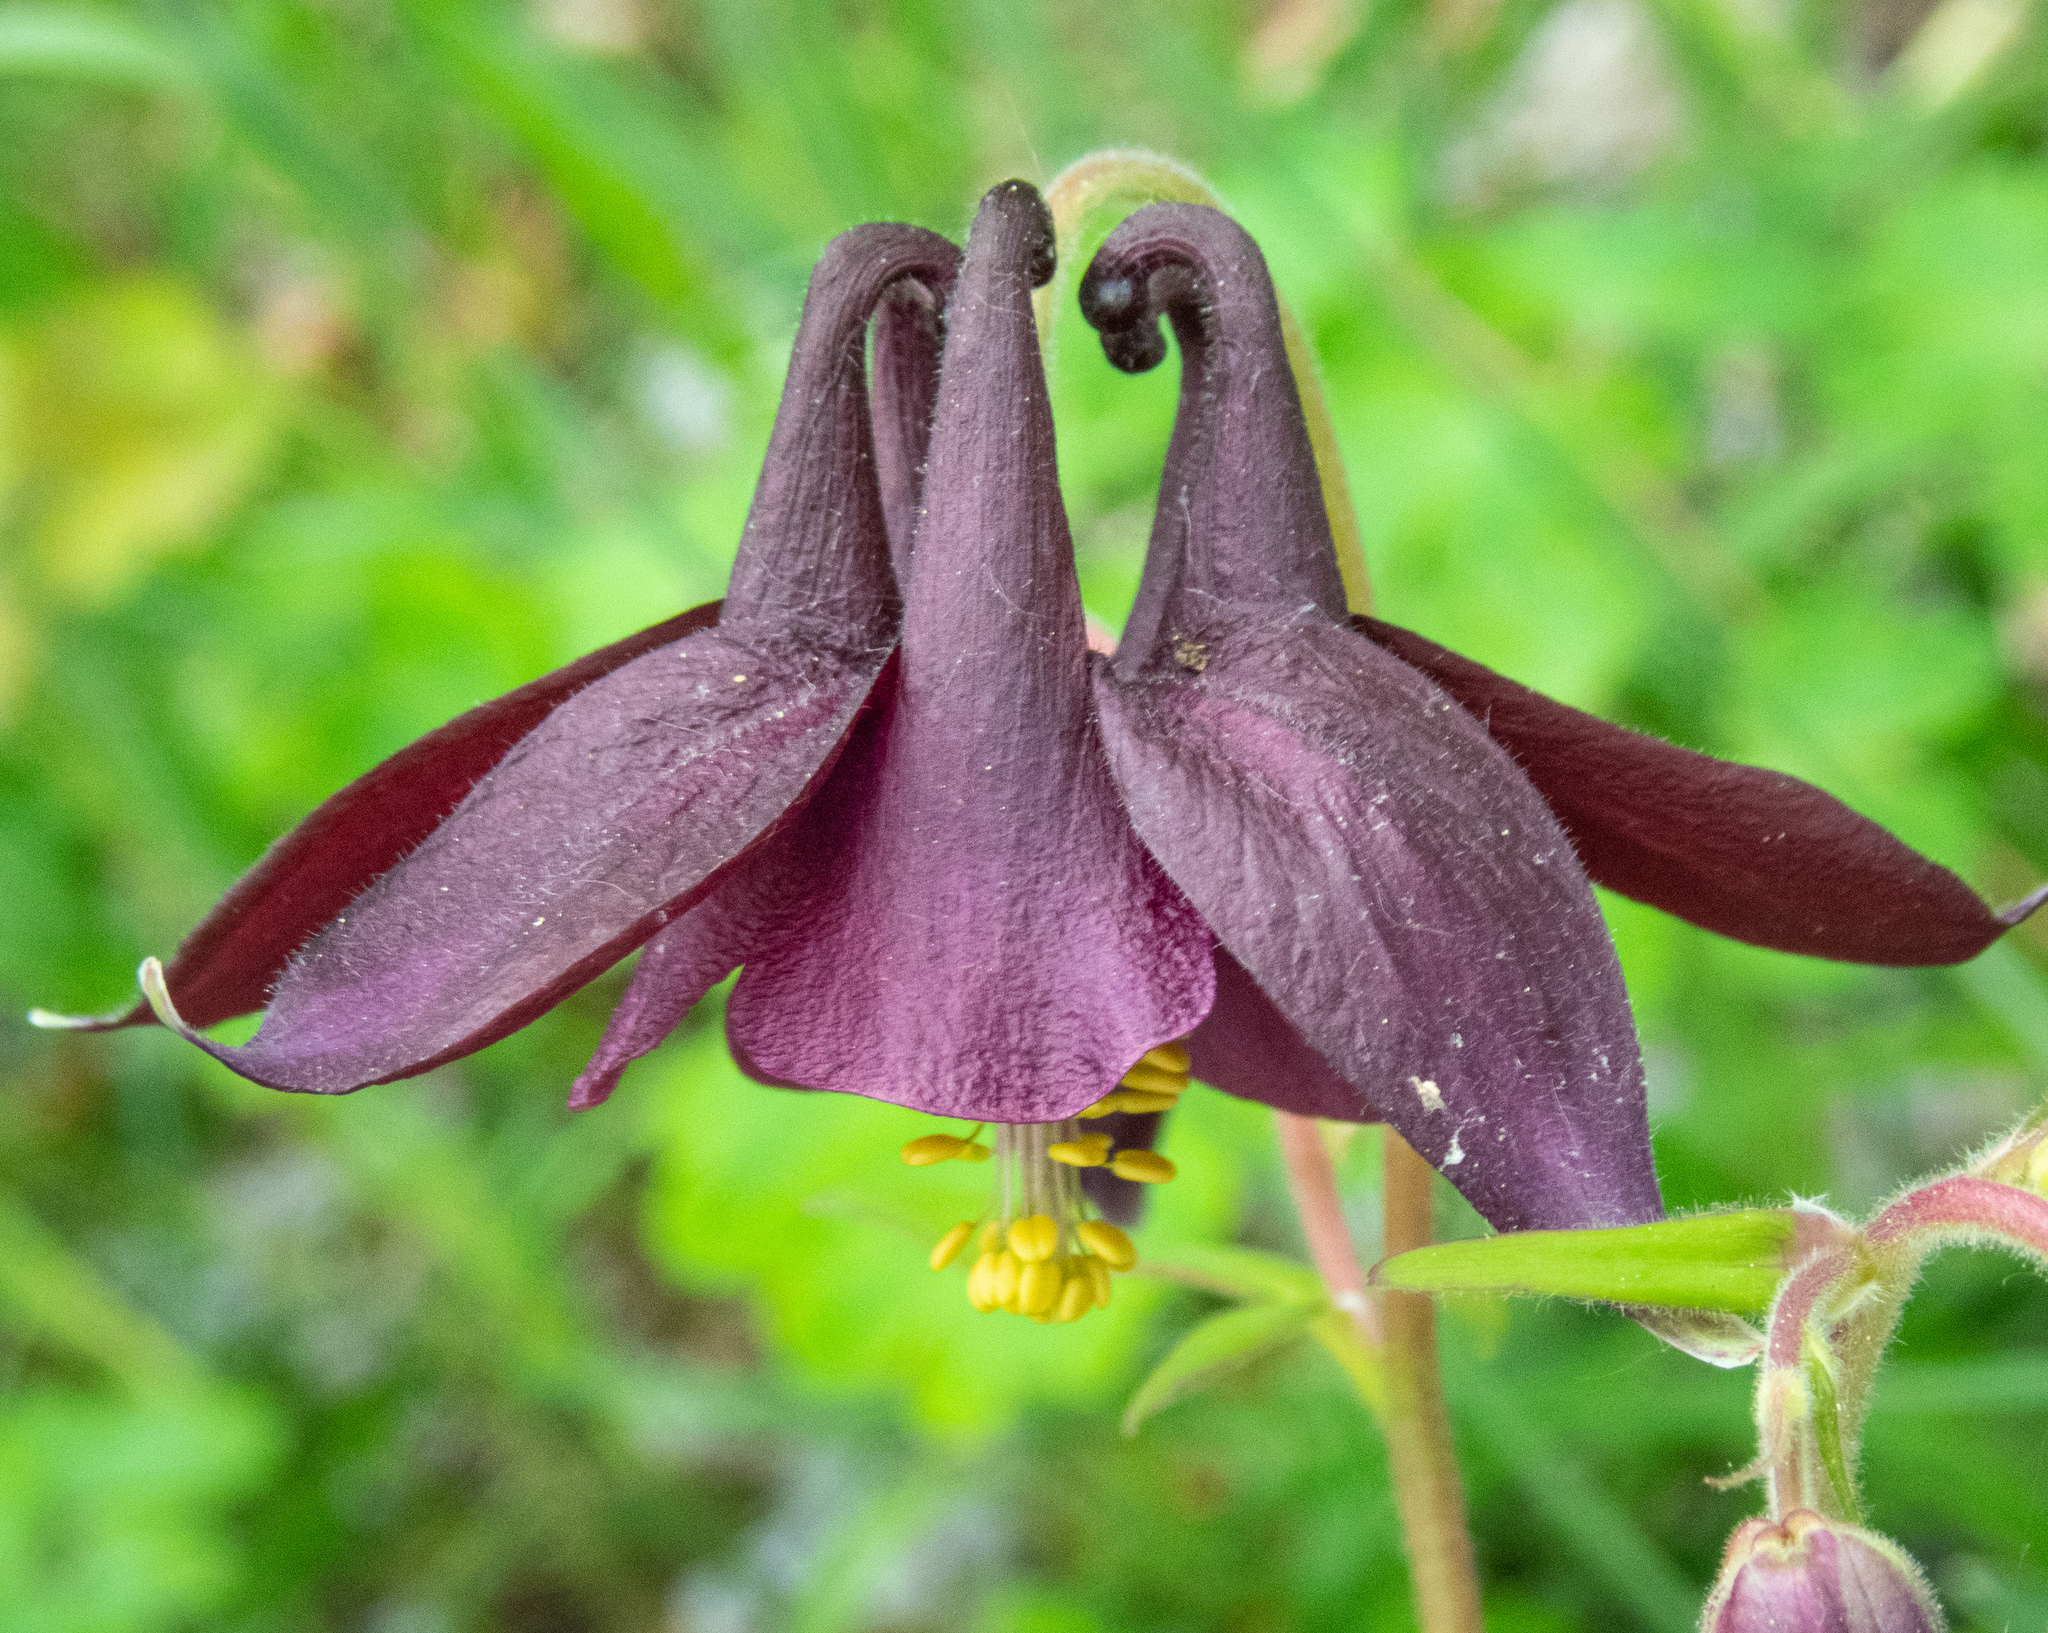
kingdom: Plantae
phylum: Tracheophyta
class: Magnoliopsida
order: Ranunculales
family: Ranunculaceae
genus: Aquilegia
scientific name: Aquilegia atrata
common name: Dark columbine
